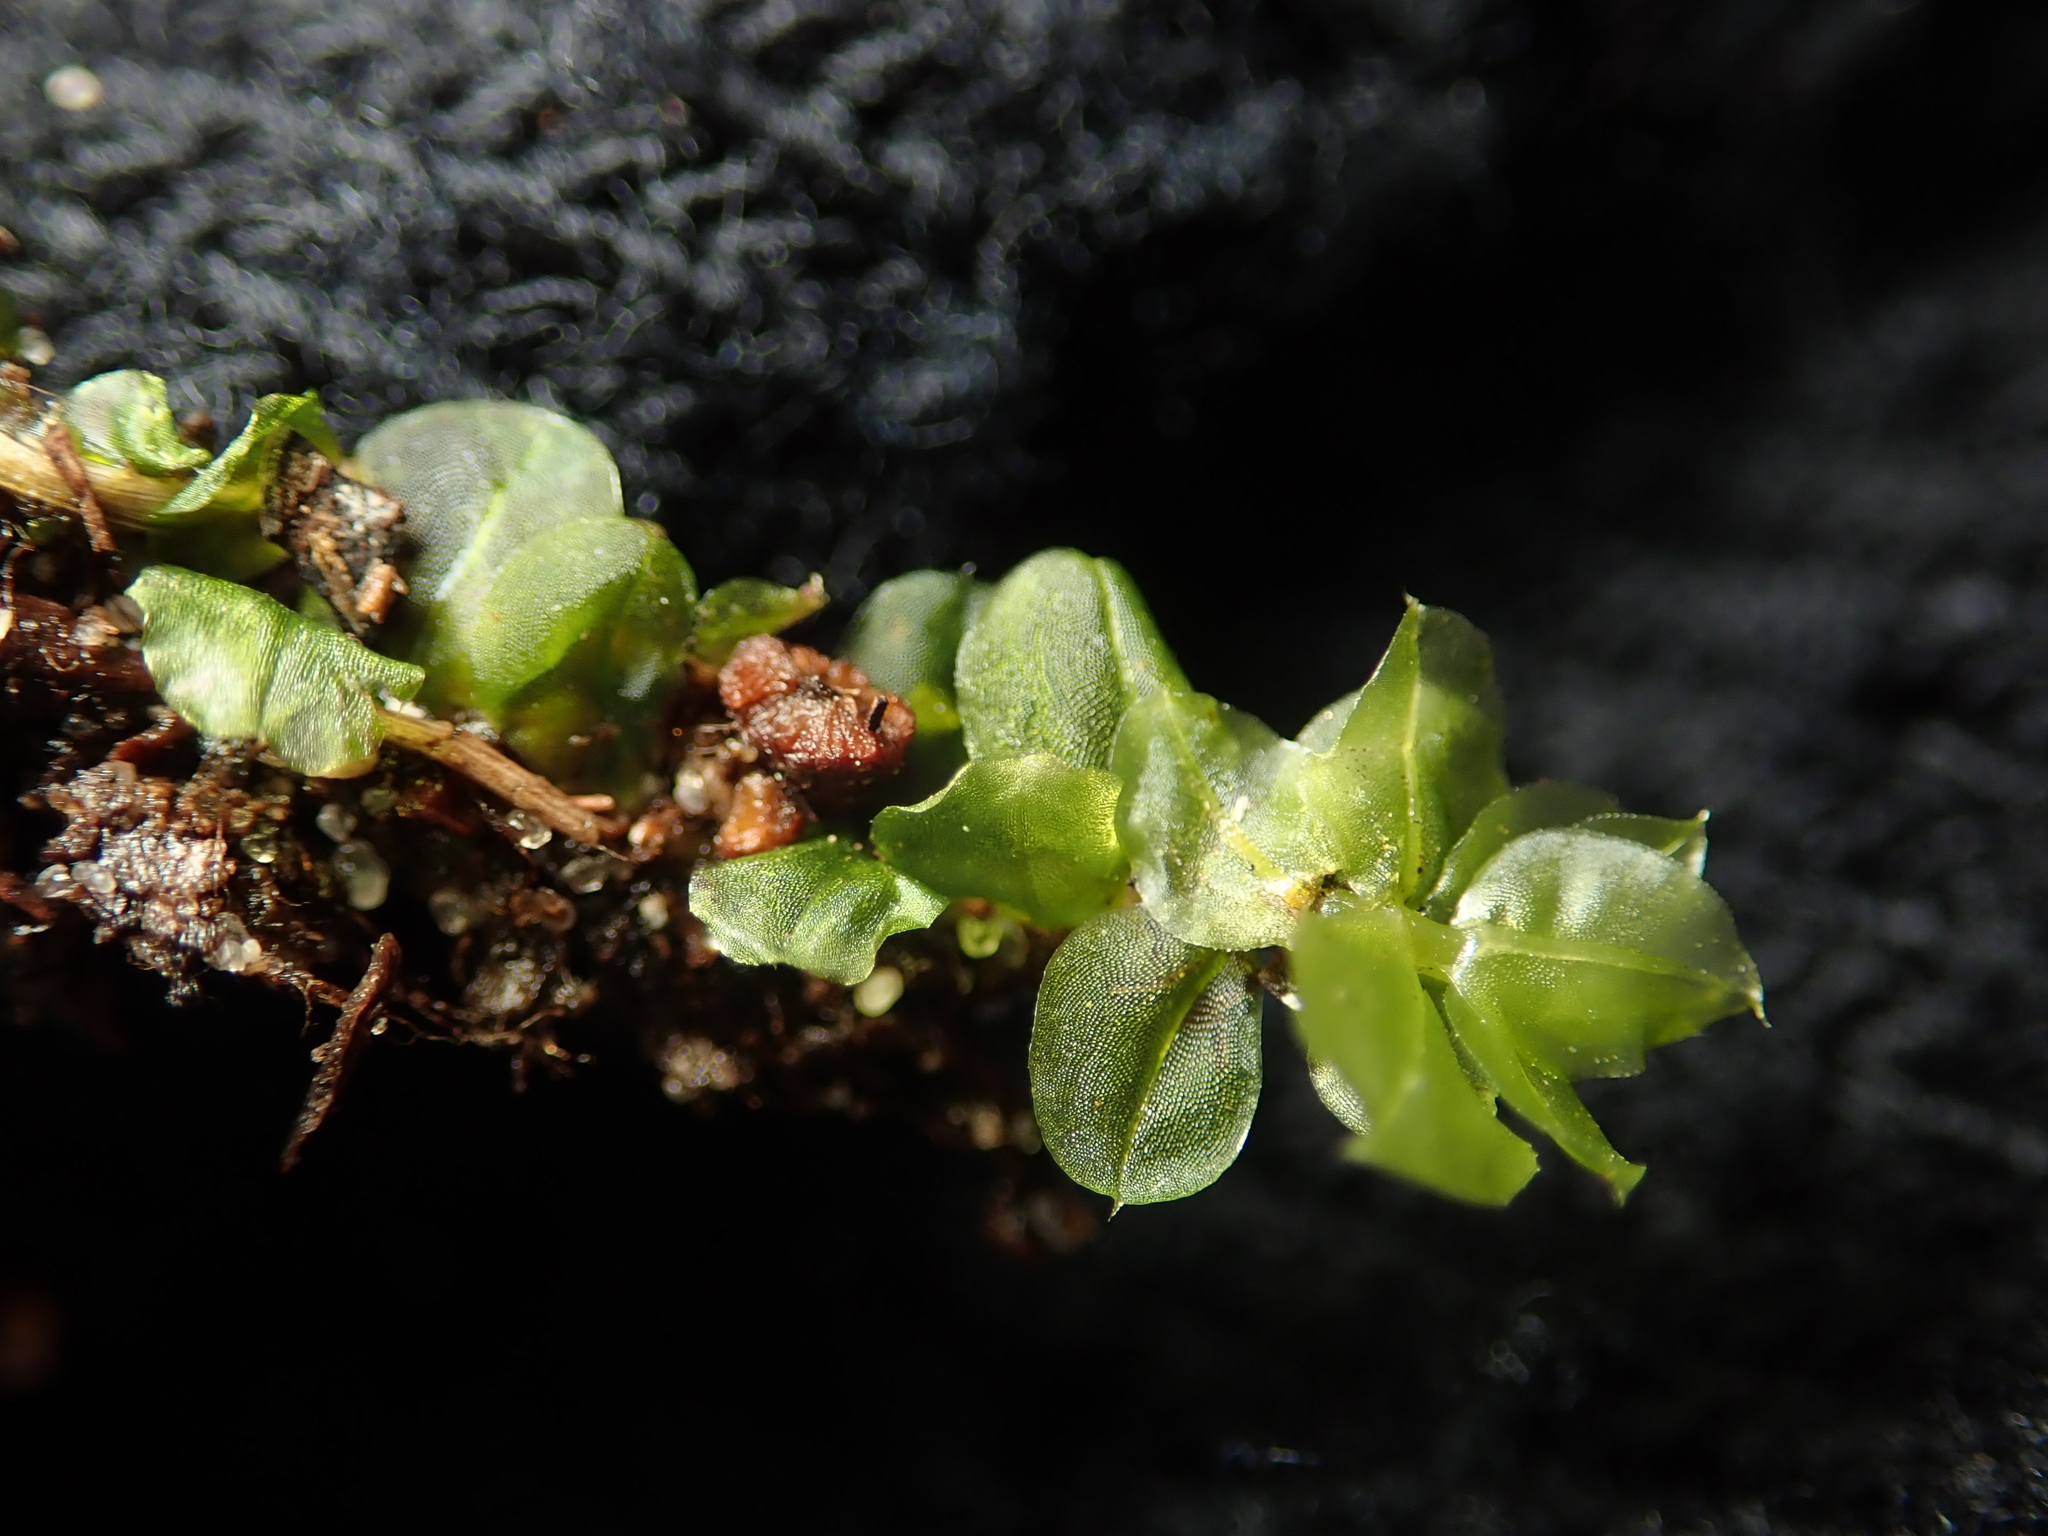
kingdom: Plantae
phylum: Bryophyta
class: Bryopsida
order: Bryales
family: Mniaceae
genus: Plagiomnium
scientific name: Plagiomnium cuspidatum
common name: Woodsy leafy moss
